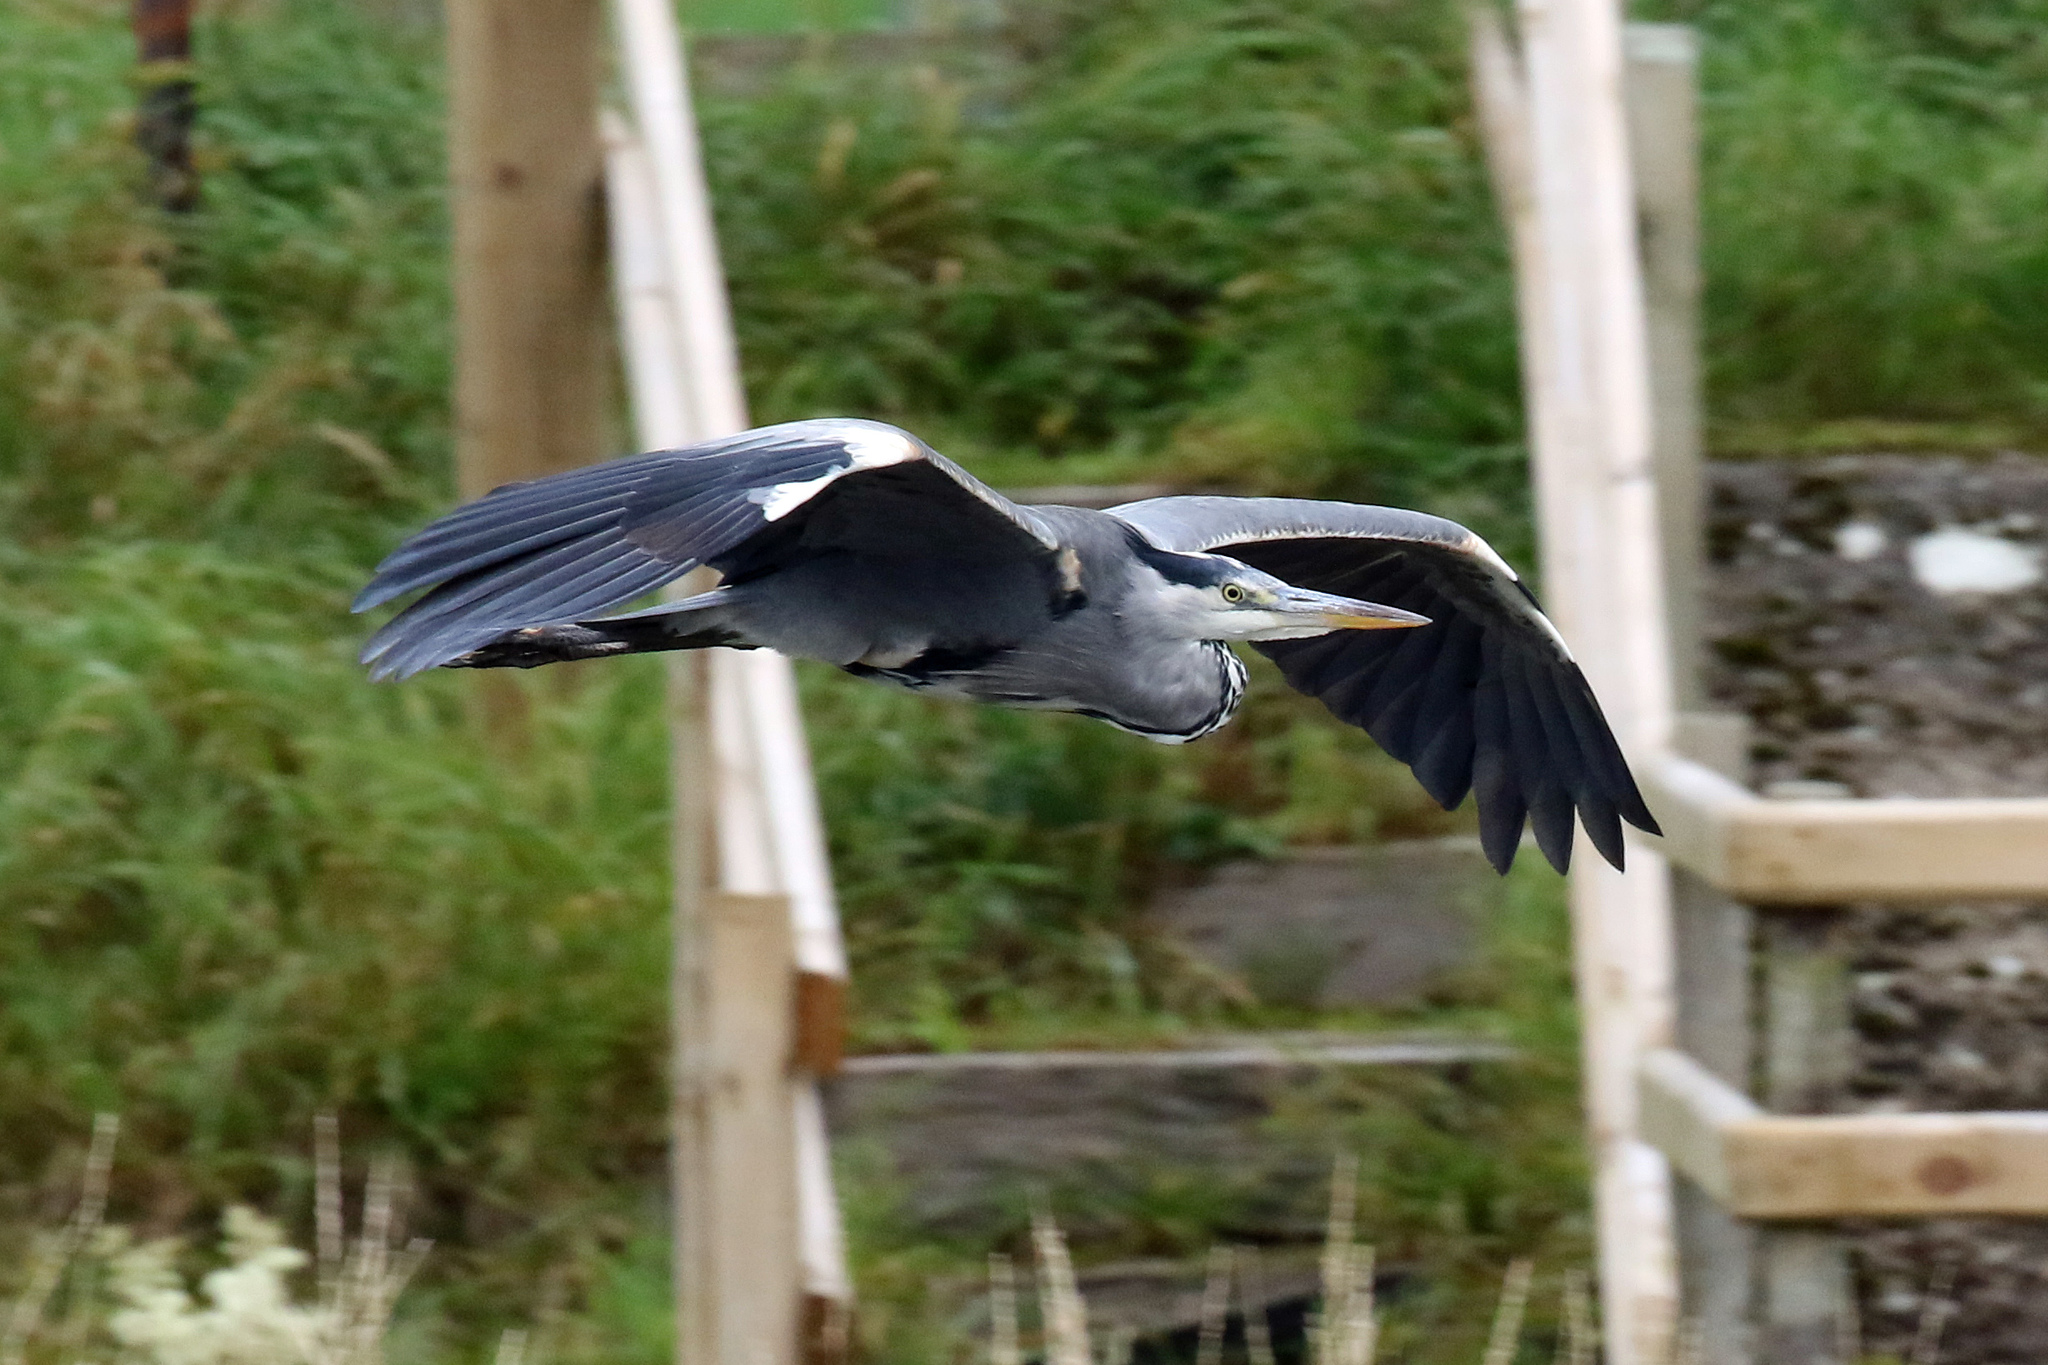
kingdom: Animalia
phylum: Chordata
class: Aves
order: Pelecaniformes
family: Ardeidae
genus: Ardea
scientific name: Ardea cinerea
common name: Grey heron
